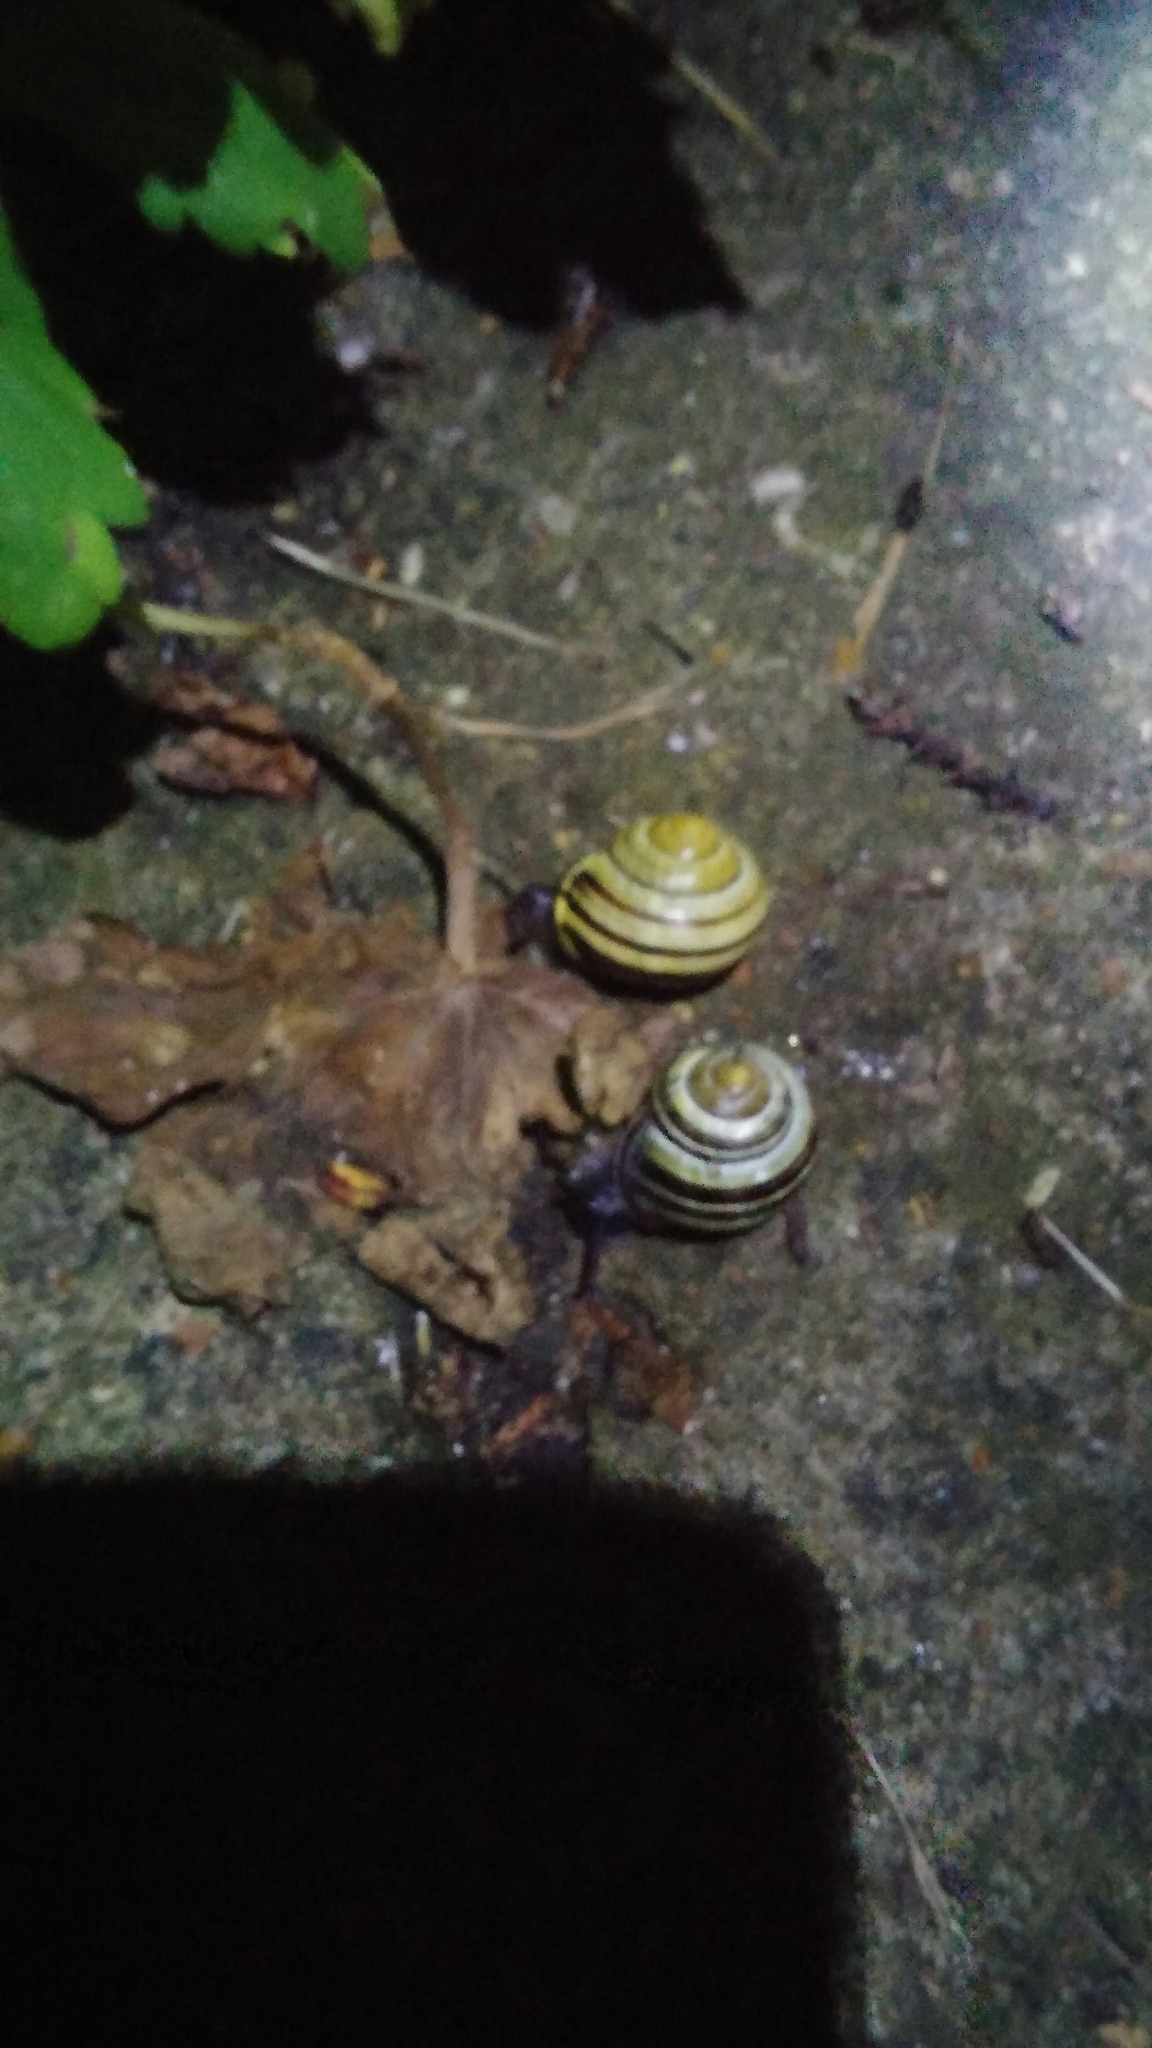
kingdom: Animalia
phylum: Mollusca
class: Gastropoda
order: Stylommatophora
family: Helicidae
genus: Cepaea
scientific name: Cepaea nemoralis
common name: Grovesnail
